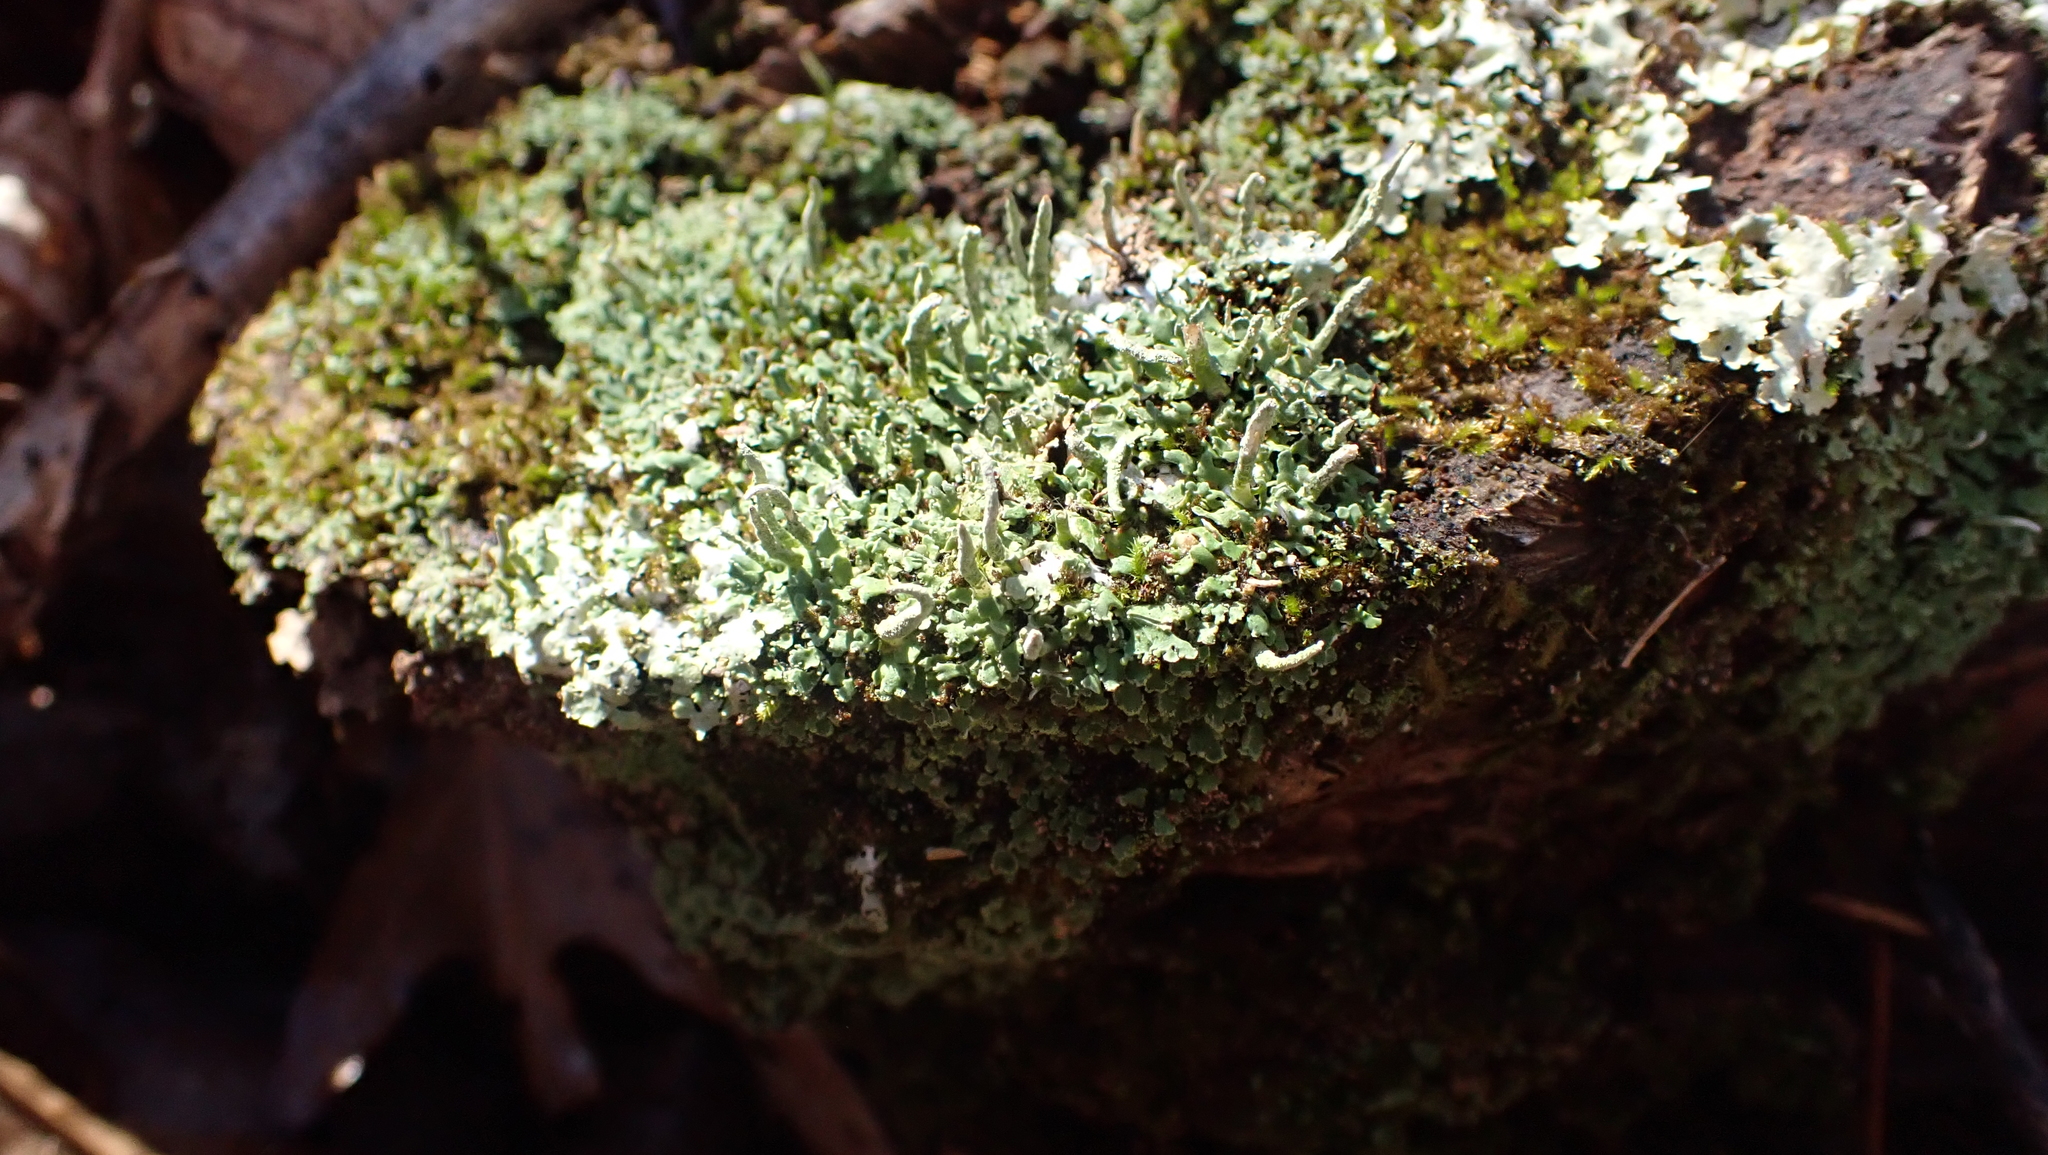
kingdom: Fungi
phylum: Ascomycota
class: Lecanoromycetes
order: Lecanorales
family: Cladoniaceae
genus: Cladonia
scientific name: Cladonia coniocraea
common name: Common powderhorn
